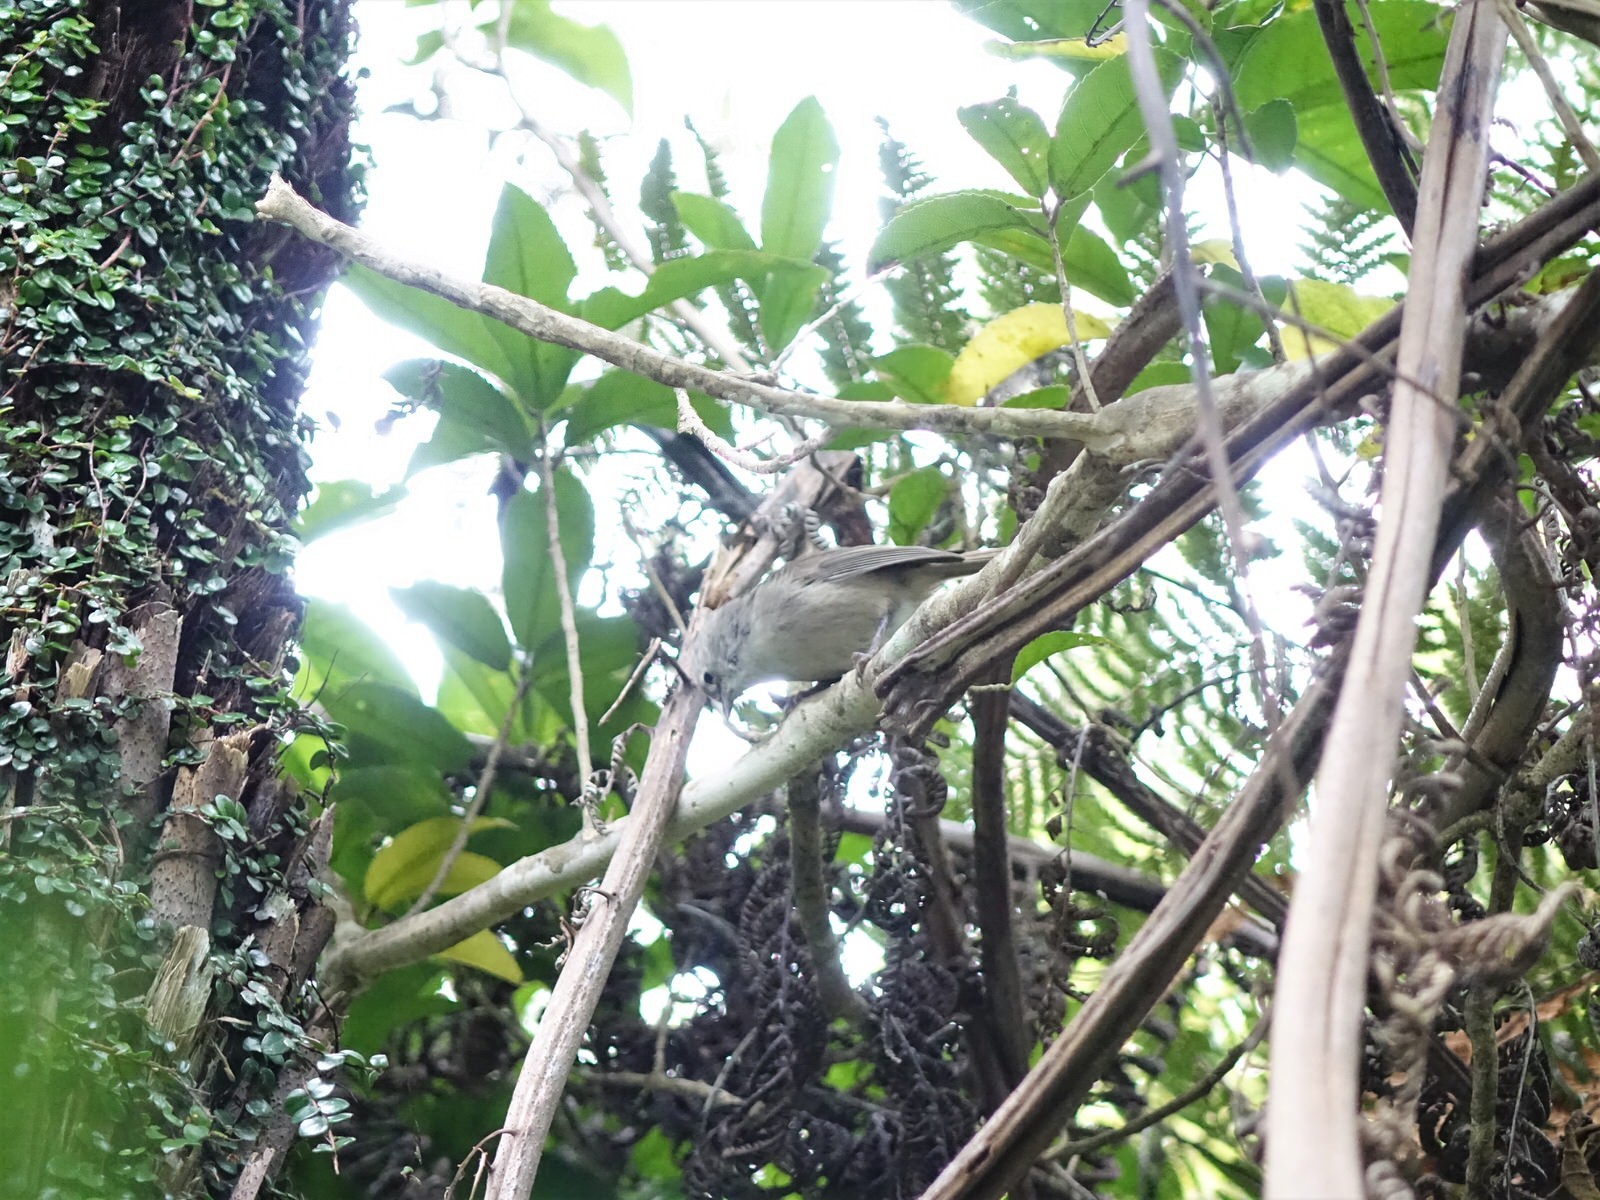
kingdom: Animalia
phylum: Chordata
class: Aves
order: Passeriformes
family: Acanthizidae
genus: Mohoua
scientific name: Mohoua albicilla
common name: Whitehead
